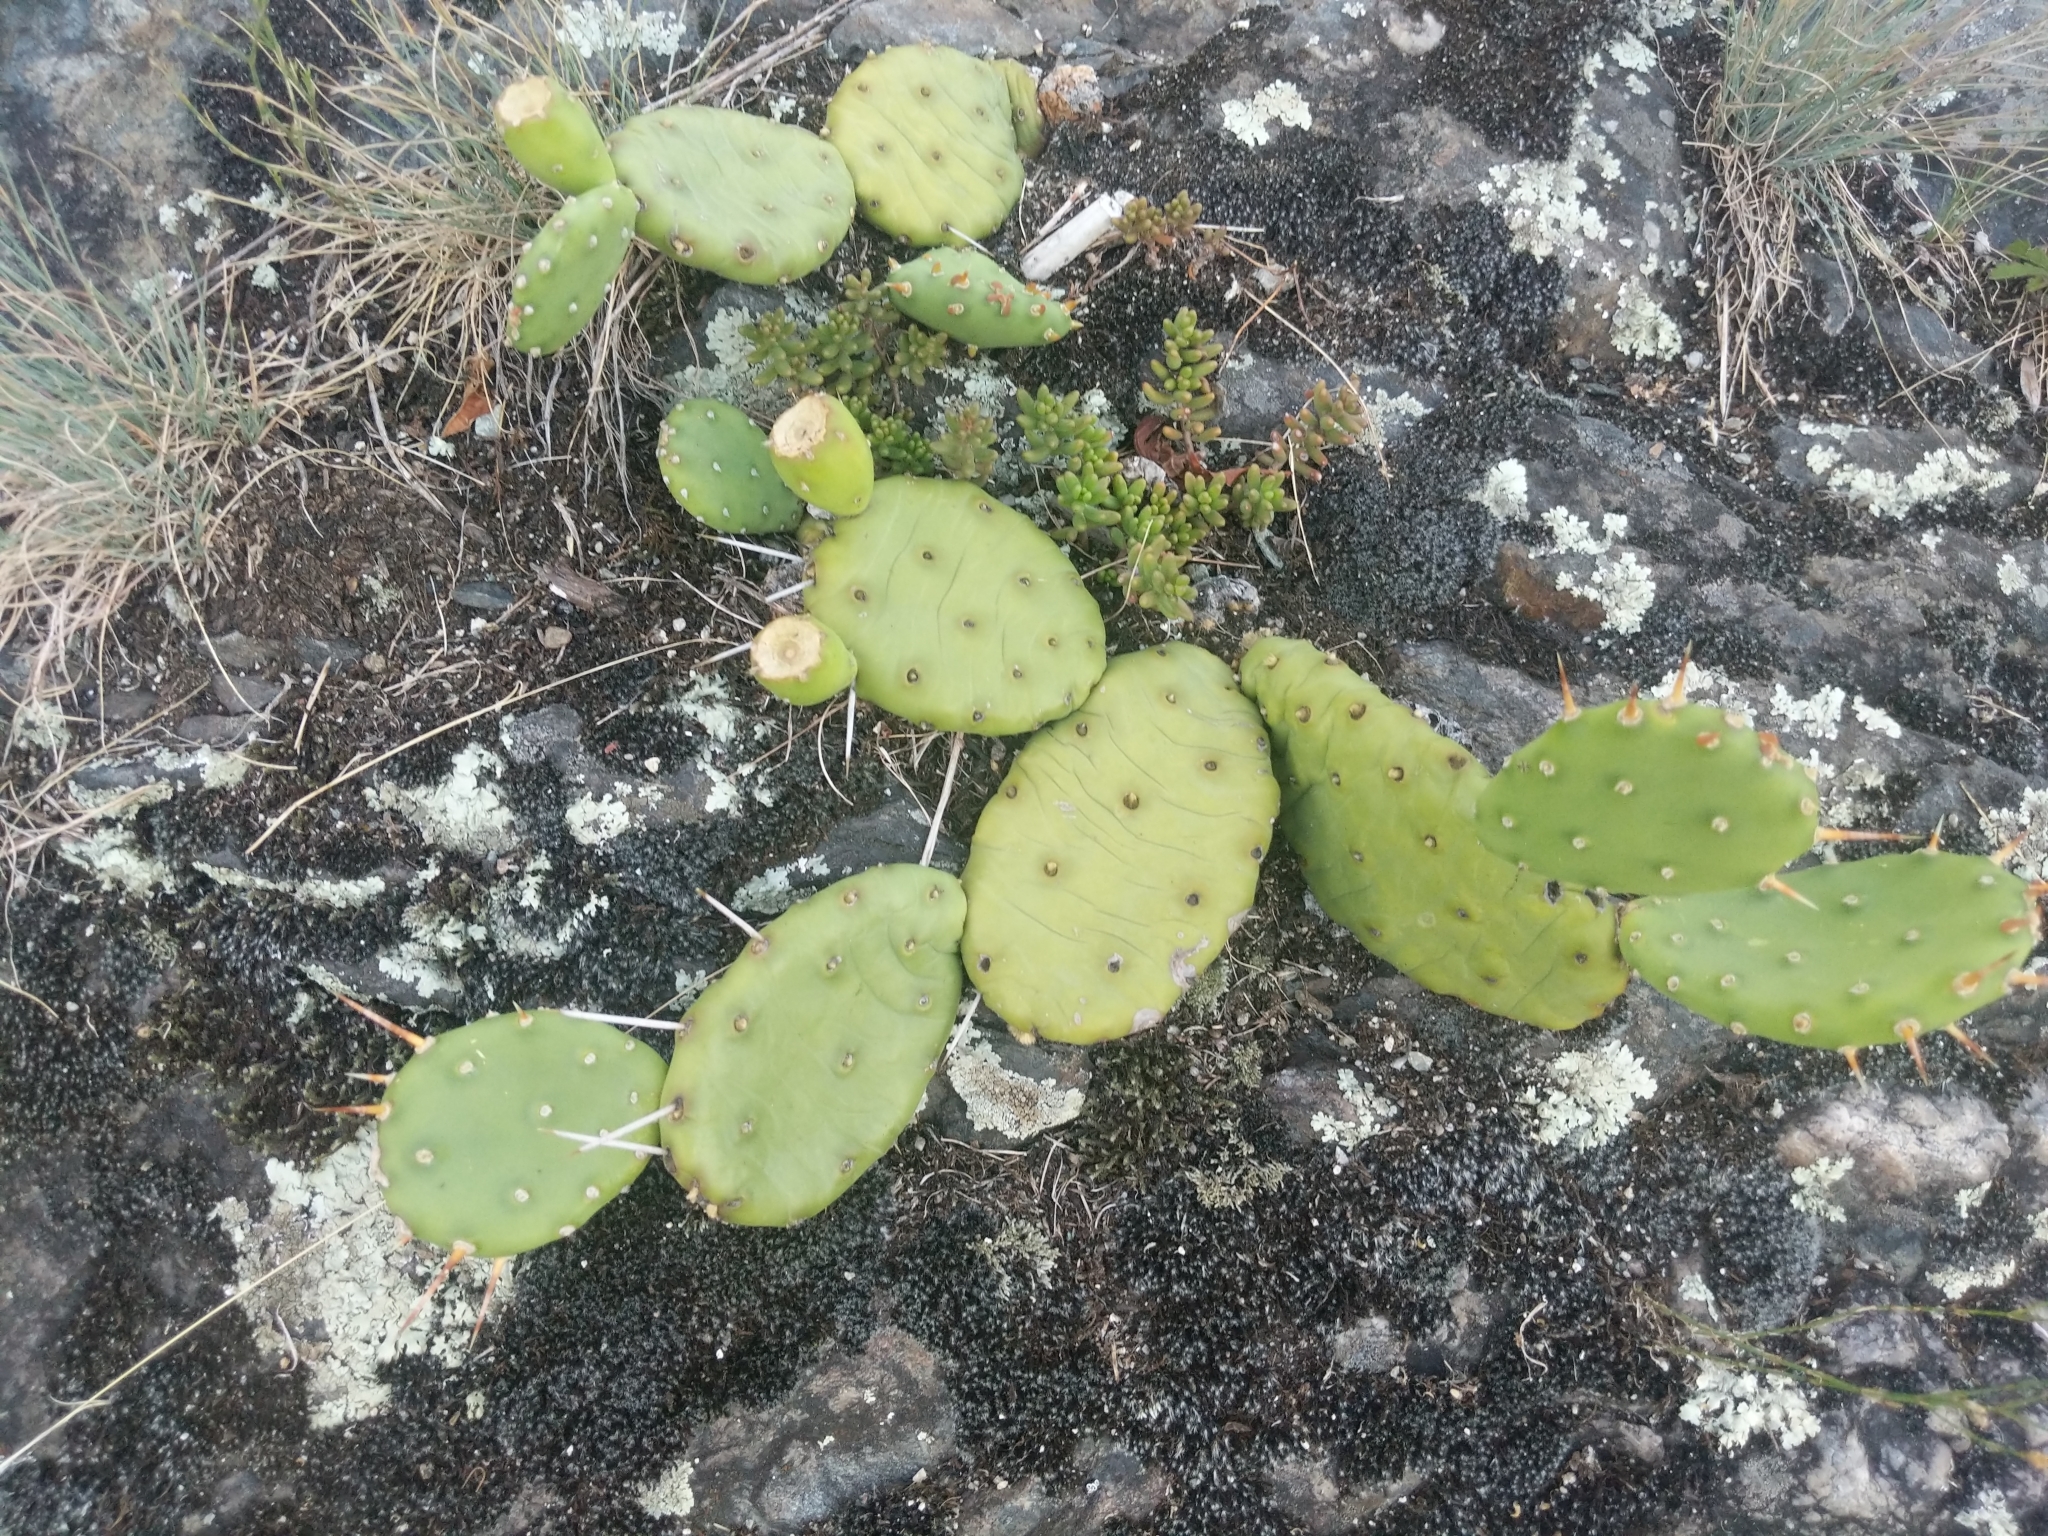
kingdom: Plantae
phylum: Tracheophyta
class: Magnoliopsida
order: Caryophyllales
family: Cactaceae
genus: Opuntia
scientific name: Opuntia humifusa
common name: Eastern prickly-pear
